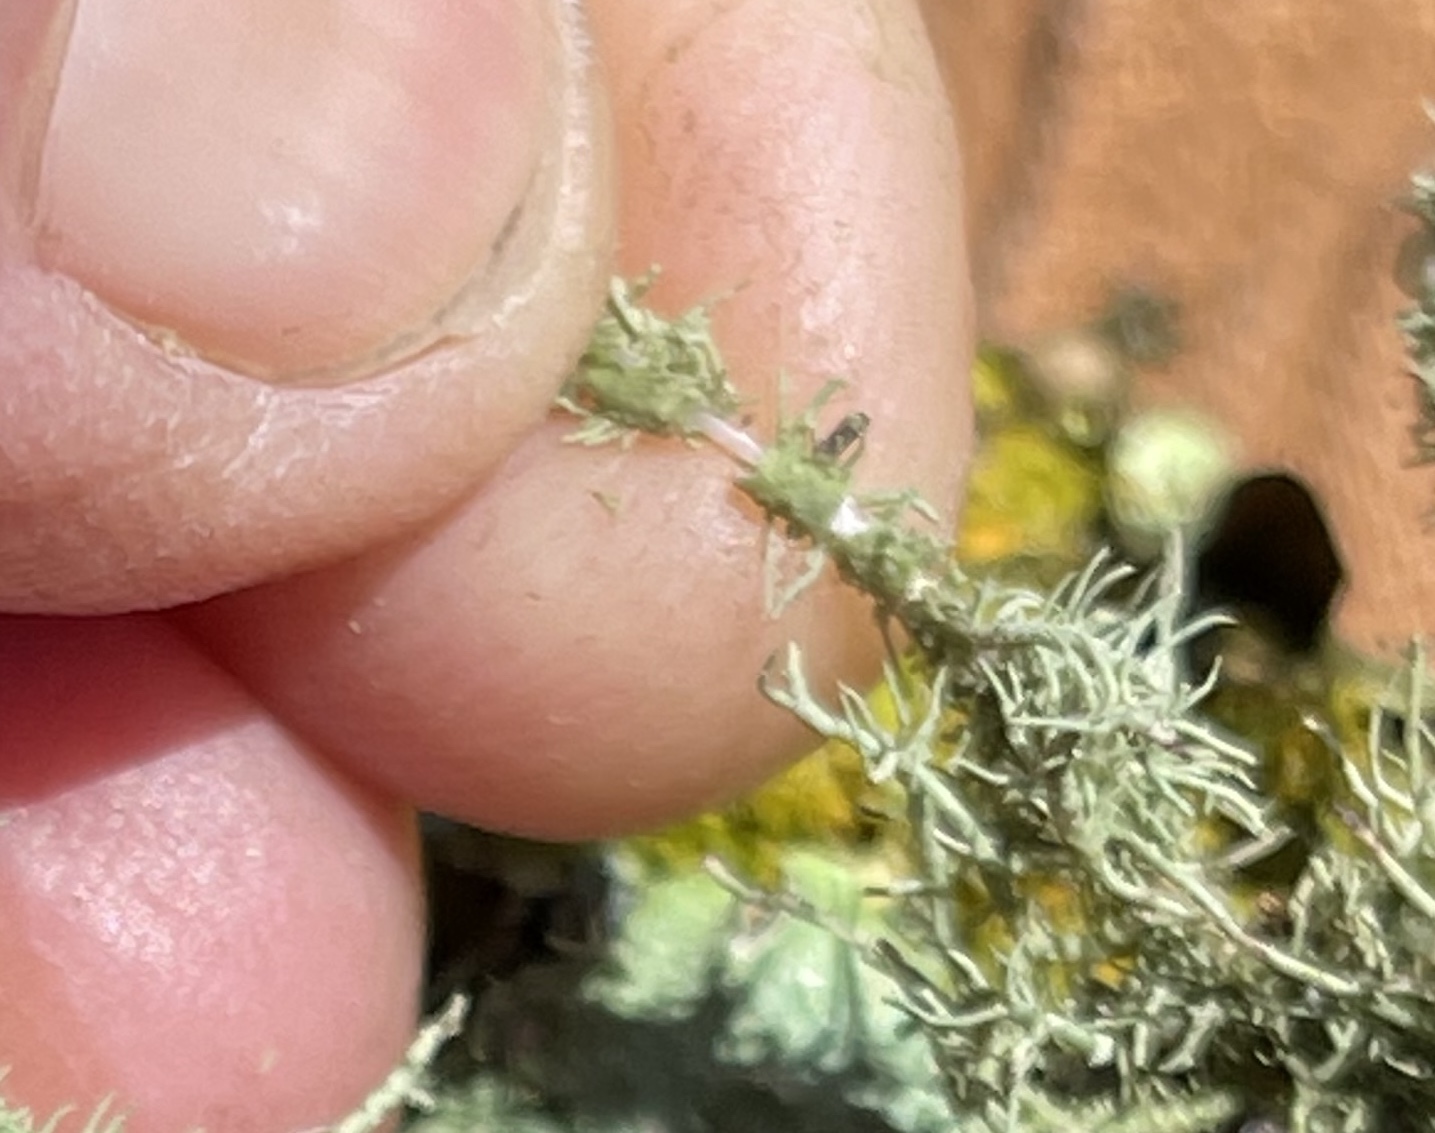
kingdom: Fungi
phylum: Ascomycota
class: Lecanoromycetes
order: Lecanorales
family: Parmeliaceae
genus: Usnea
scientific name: Usnea intermedia
